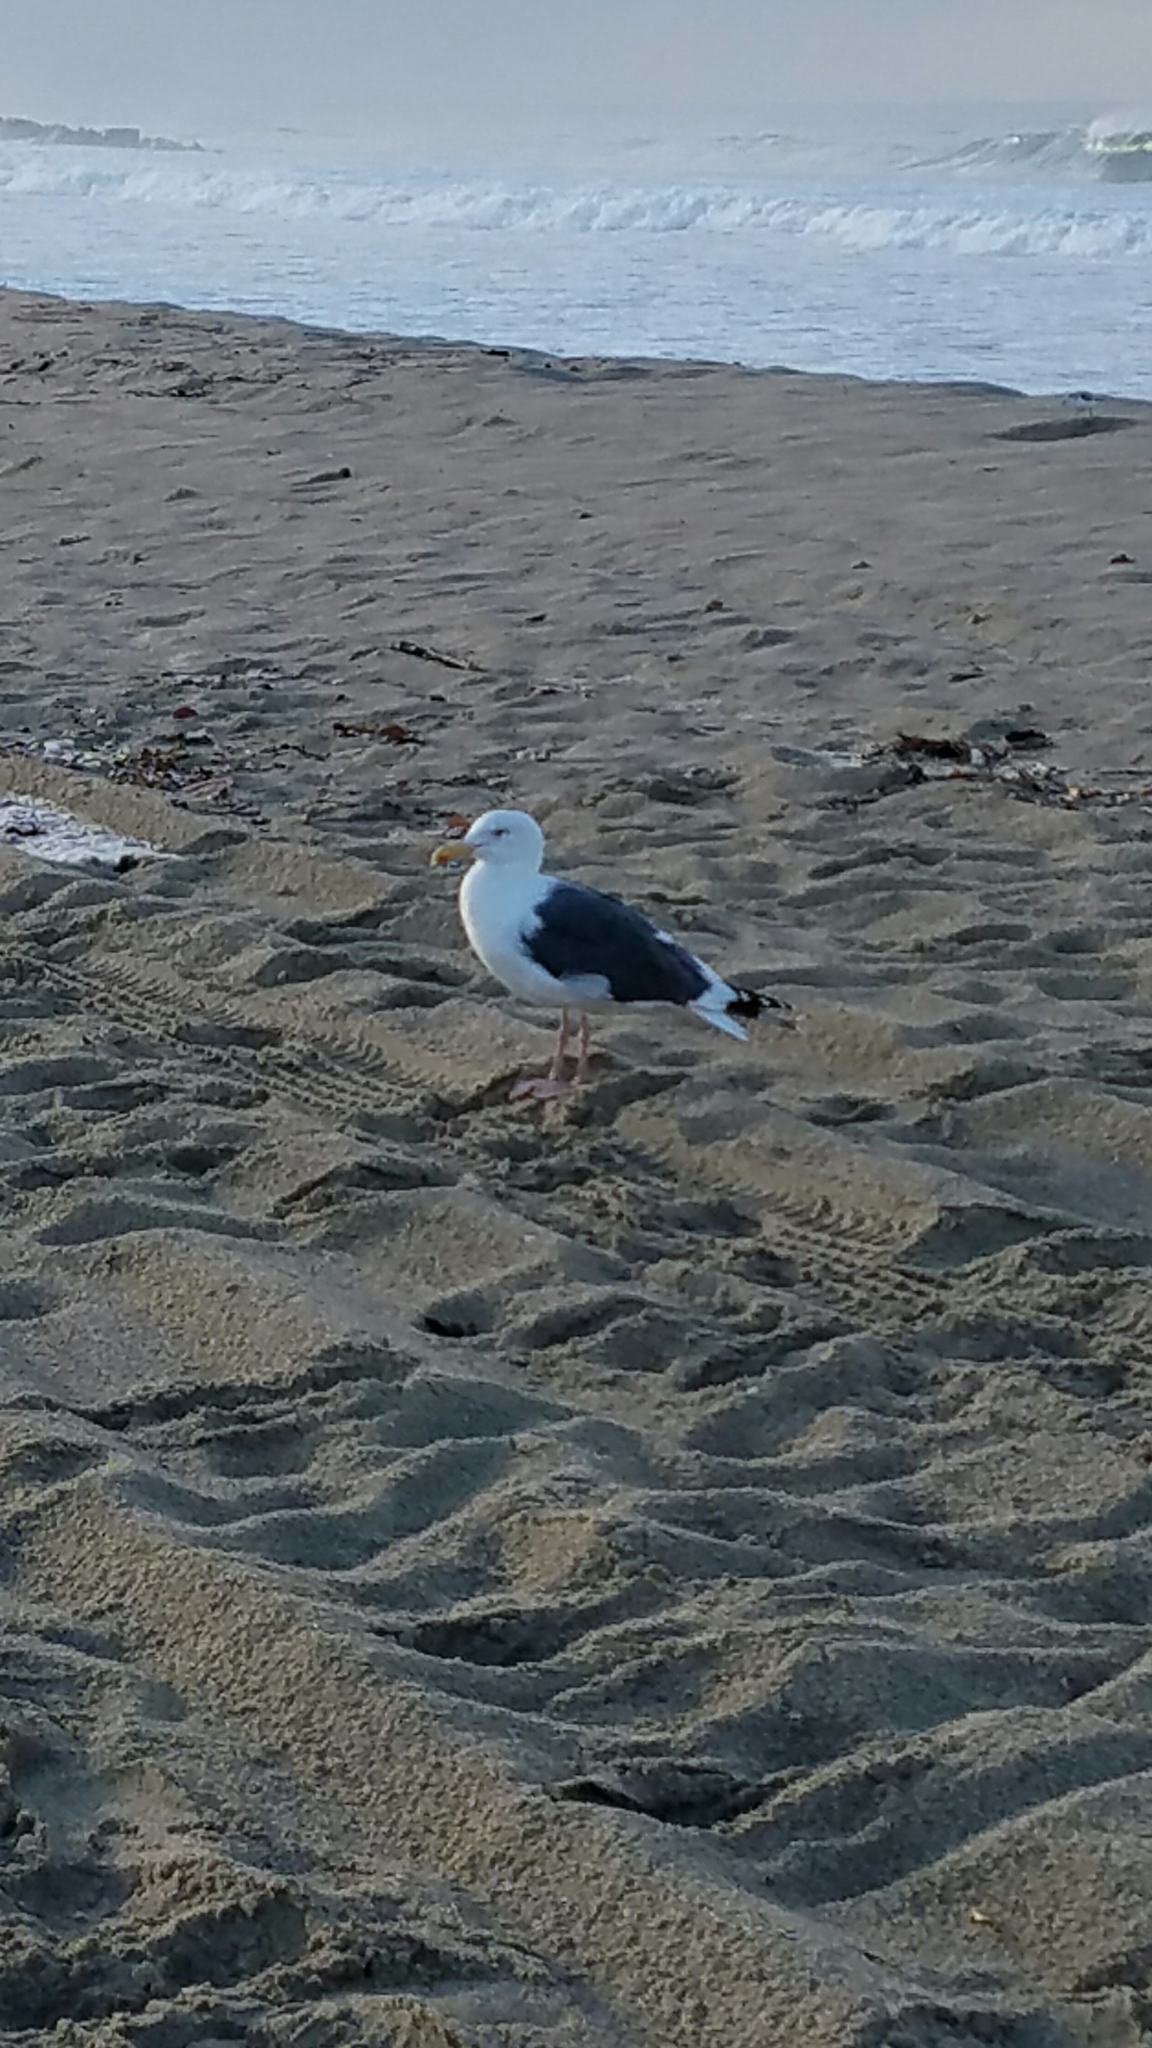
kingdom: Animalia
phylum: Chordata
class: Aves
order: Charadriiformes
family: Laridae
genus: Larus
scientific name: Larus occidentalis
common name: Western gull
